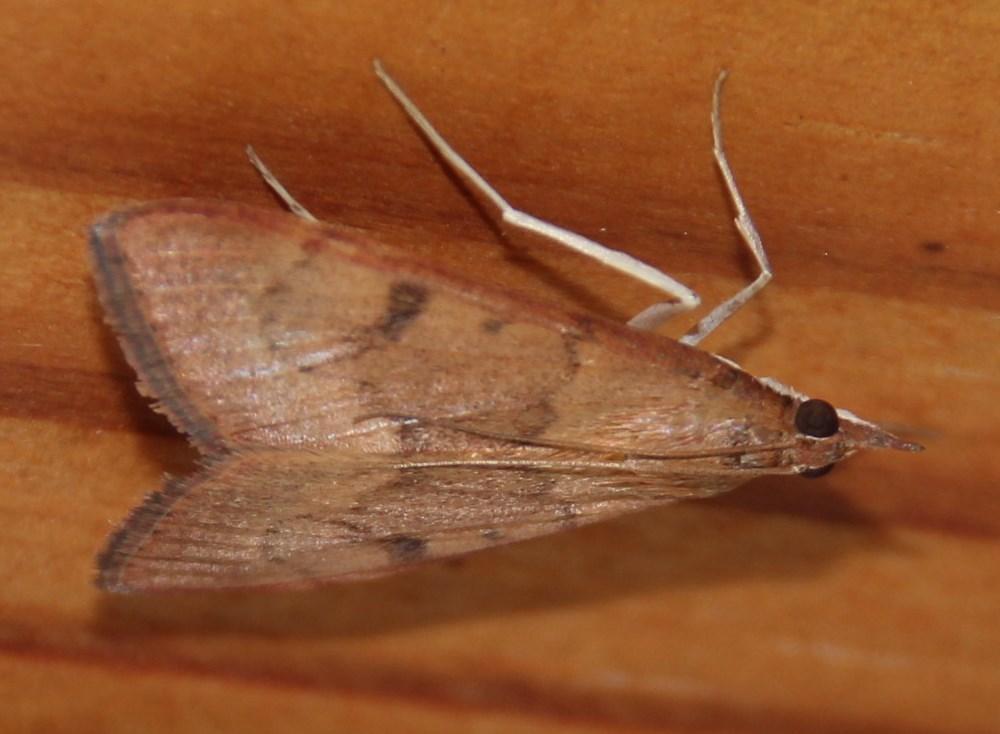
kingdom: Animalia
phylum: Arthropoda
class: Insecta
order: Lepidoptera
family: Crambidae
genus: Uresiphita
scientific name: Uresiphita gilvata
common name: Yellow-underwing pearl
